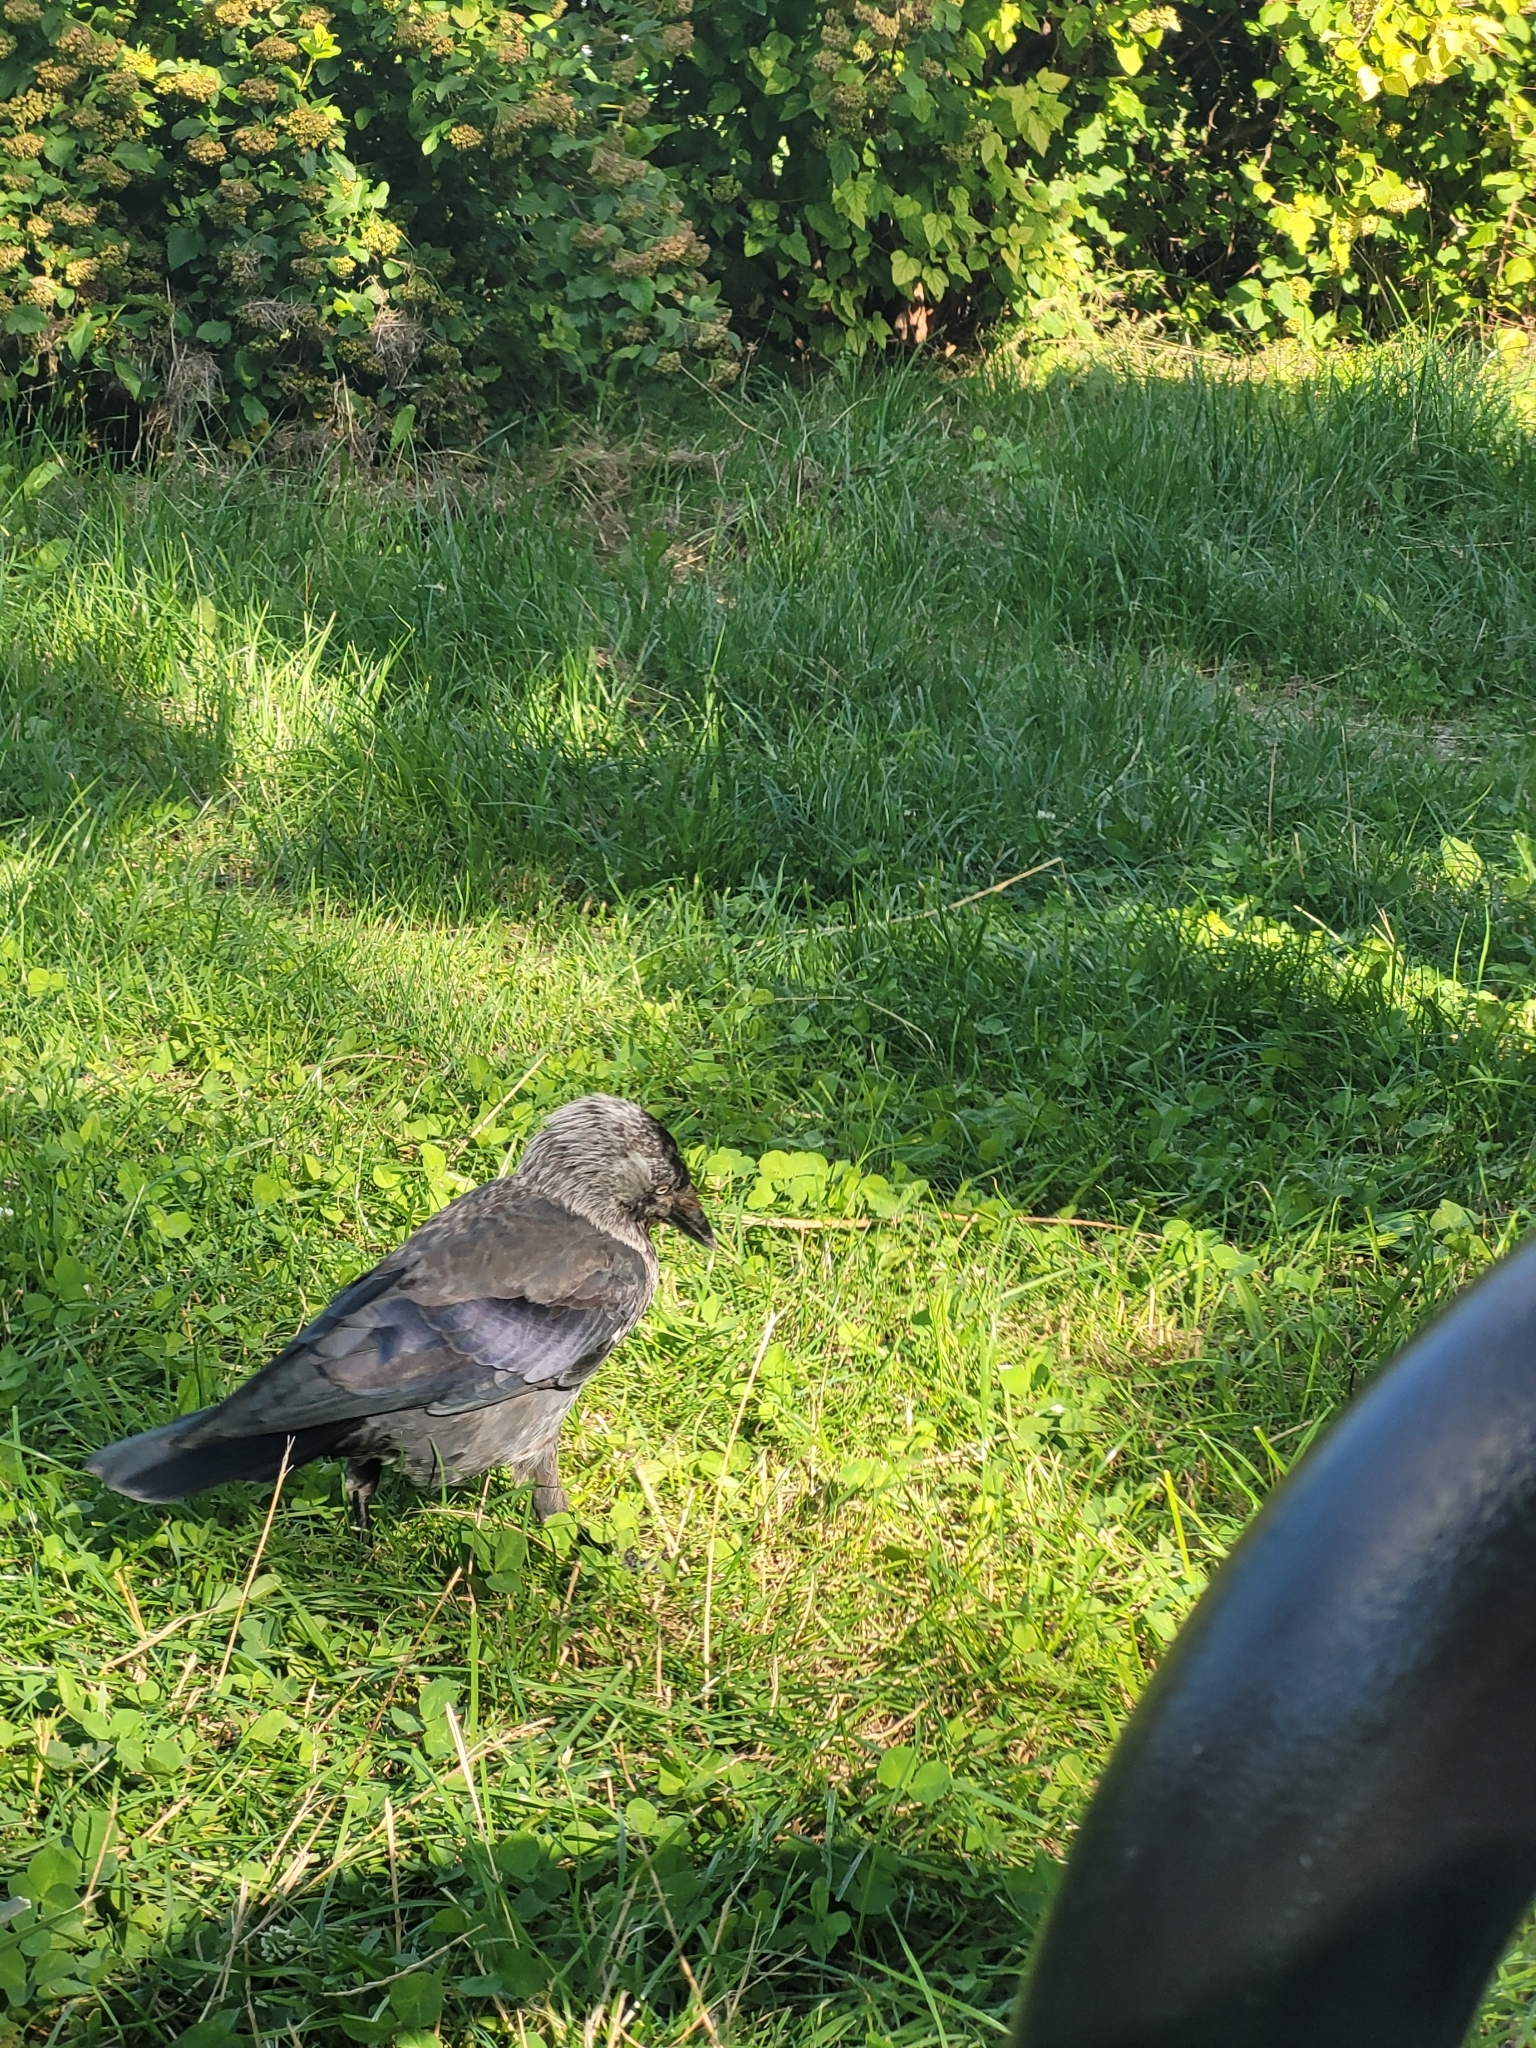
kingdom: Animalia
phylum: Chordata
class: Aves
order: Passeriformes
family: Corvidae
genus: Coloeus
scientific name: Coloeus monedula
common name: Western jackdaw
